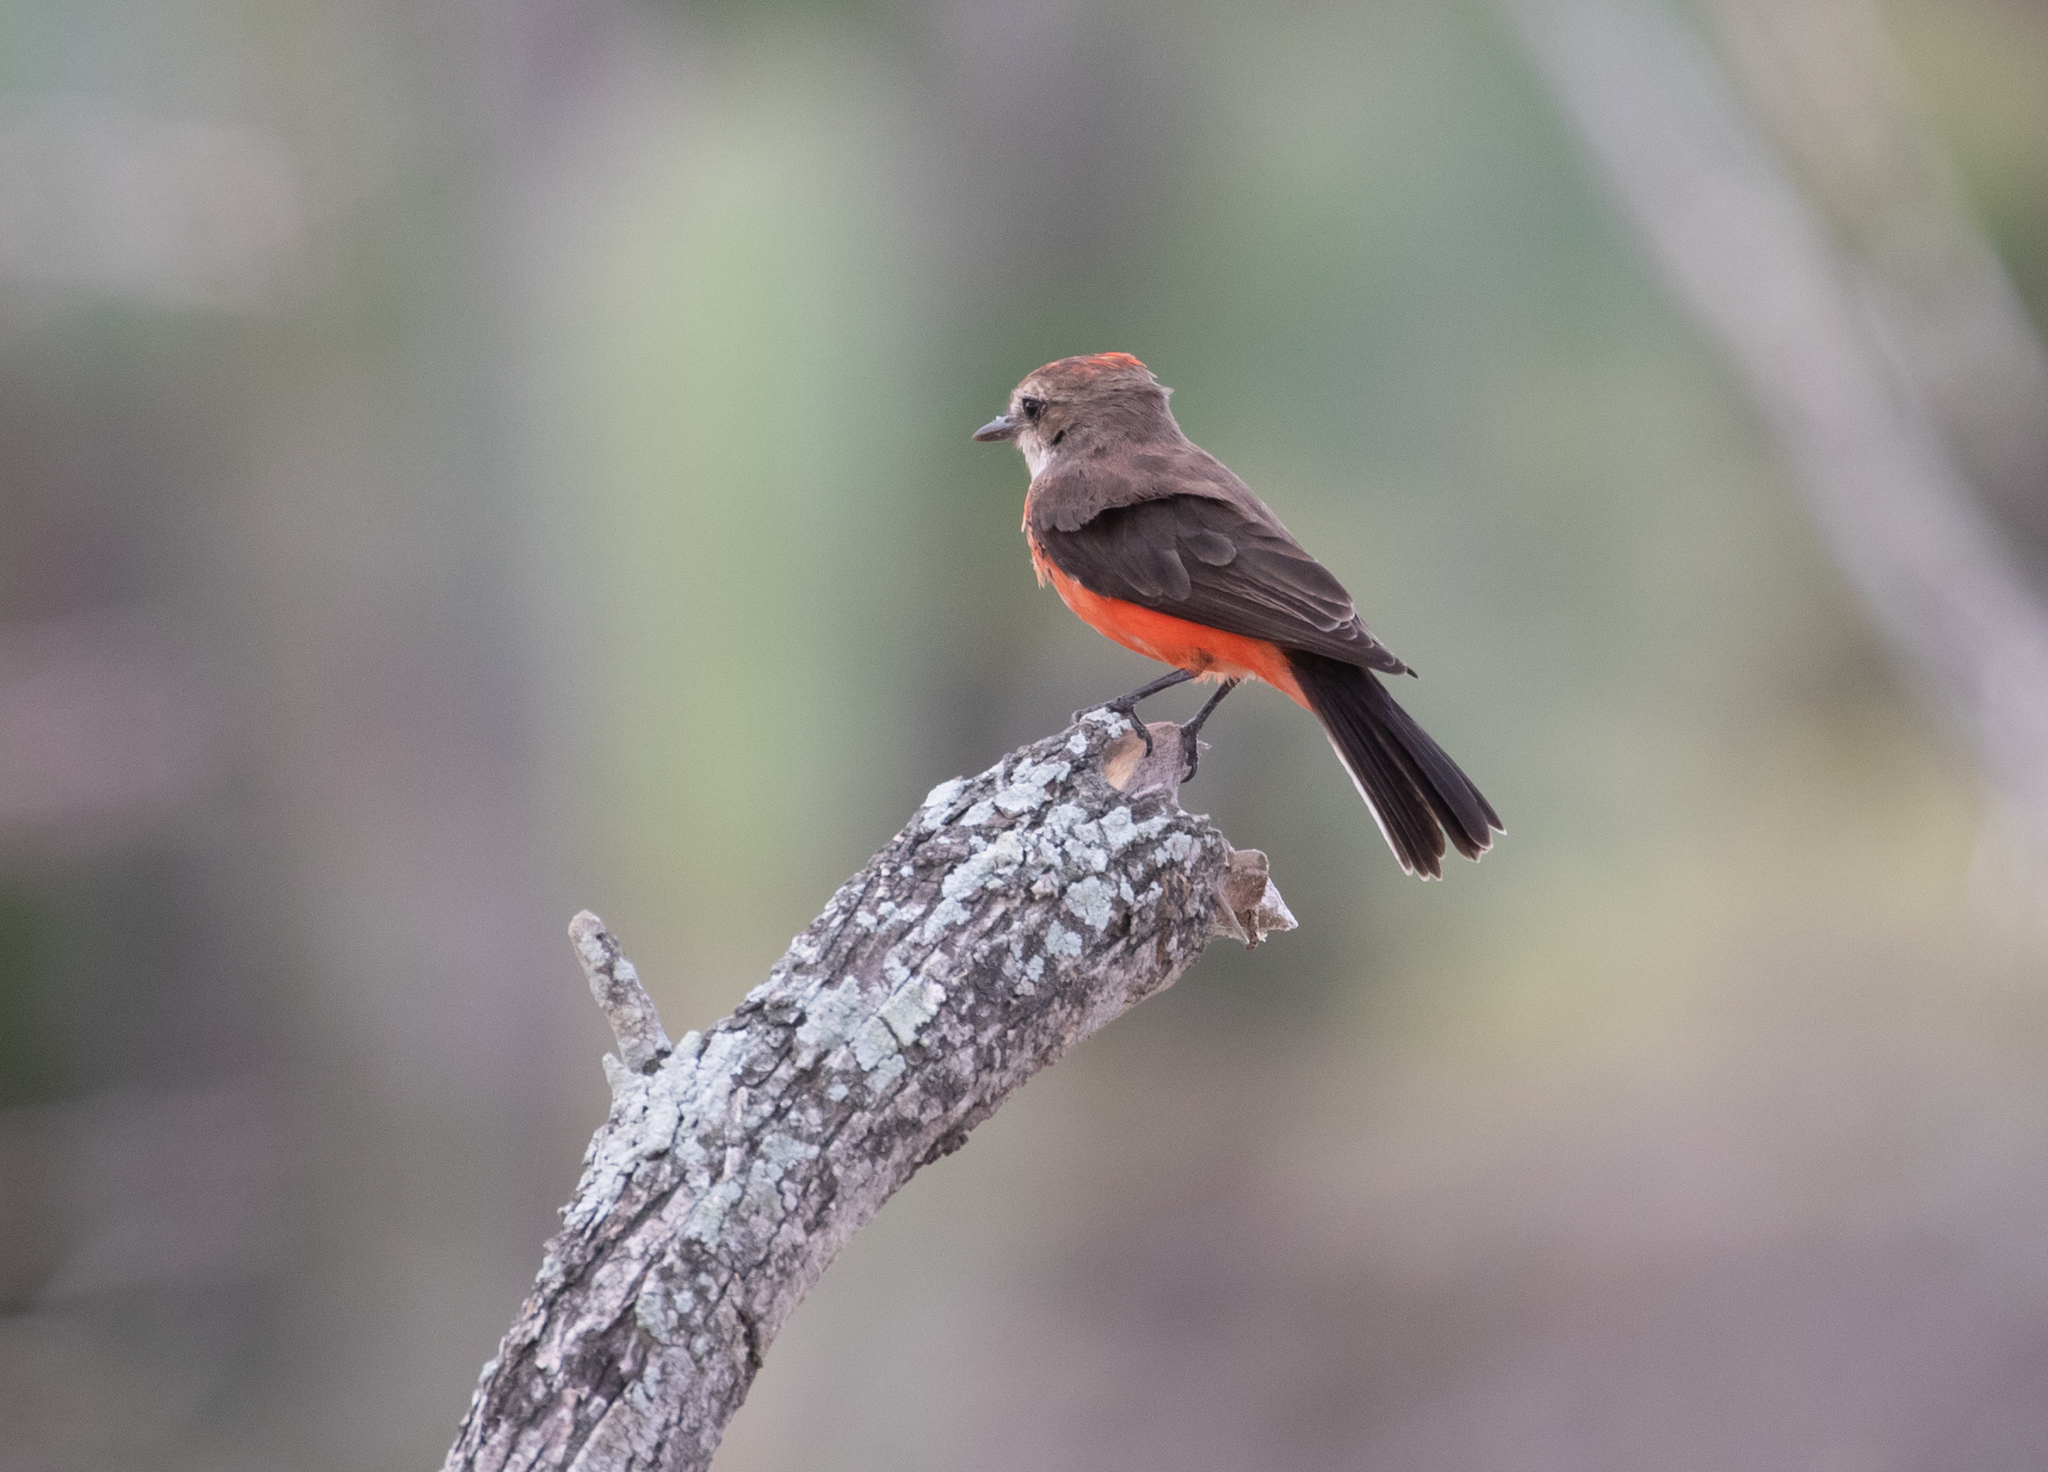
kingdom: Animalia
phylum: Chordata
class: Aves
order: Passeriformes
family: Tyrannidae
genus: Pyrocephalus
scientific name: Pyrocephalus rubinus
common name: Vermilion flycatcher
